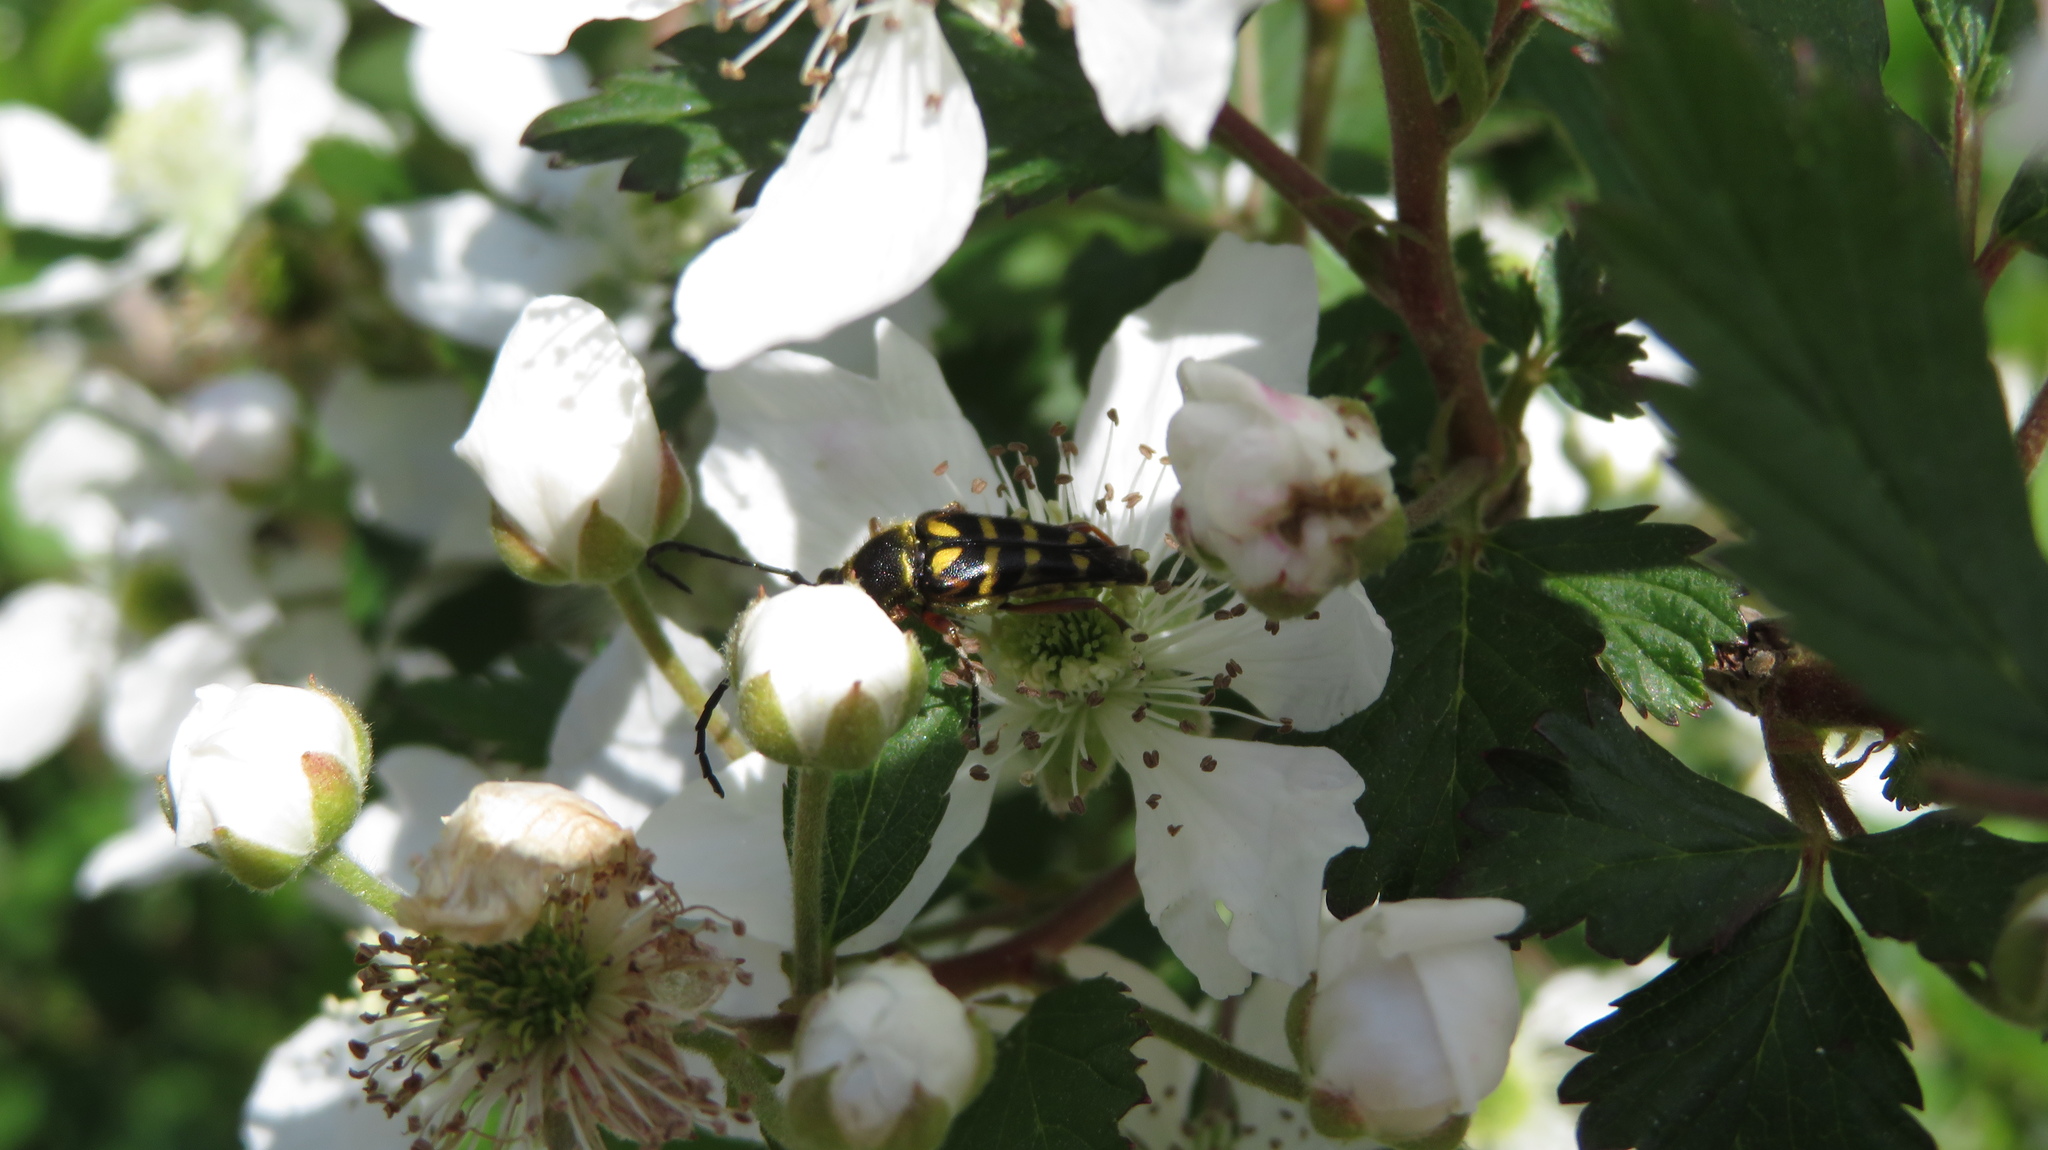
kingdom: Animalia
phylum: Arthropoda
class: Insecta
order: Coleoptera
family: Cerambycidae
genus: Typocerus
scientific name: Typocerus zebra
